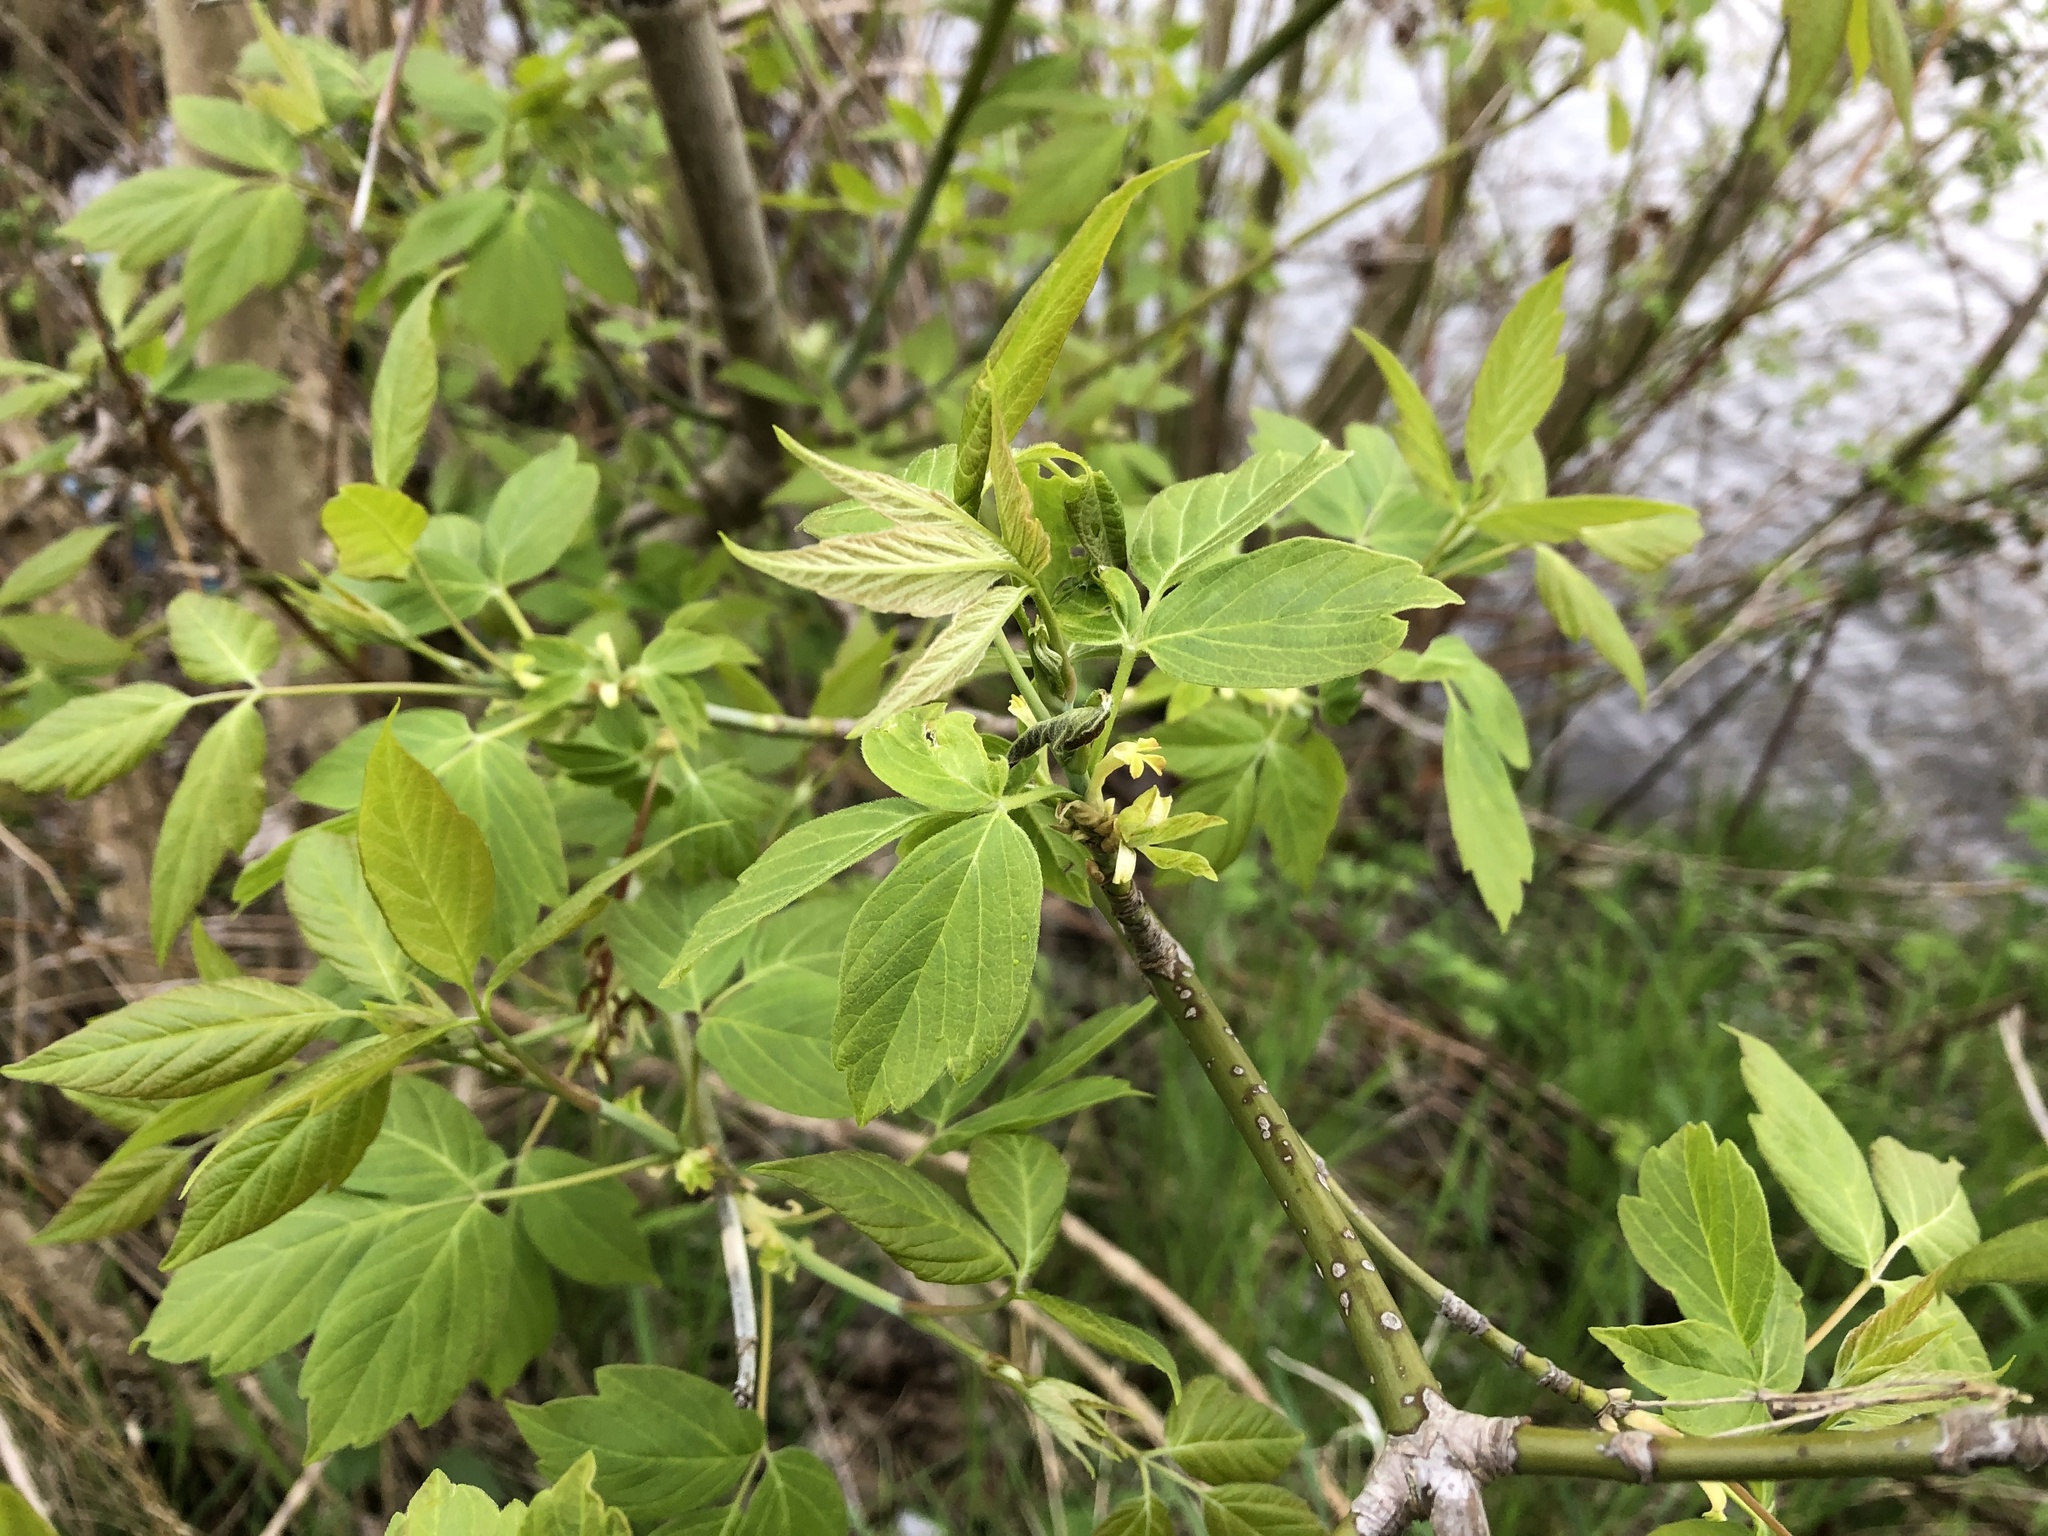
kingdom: Plantae
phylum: Tracheophyta
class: Magnoliopsida
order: Sapindales
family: Sapindaceae
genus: Acer
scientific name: Acer negundo
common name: Ashleaf maple
